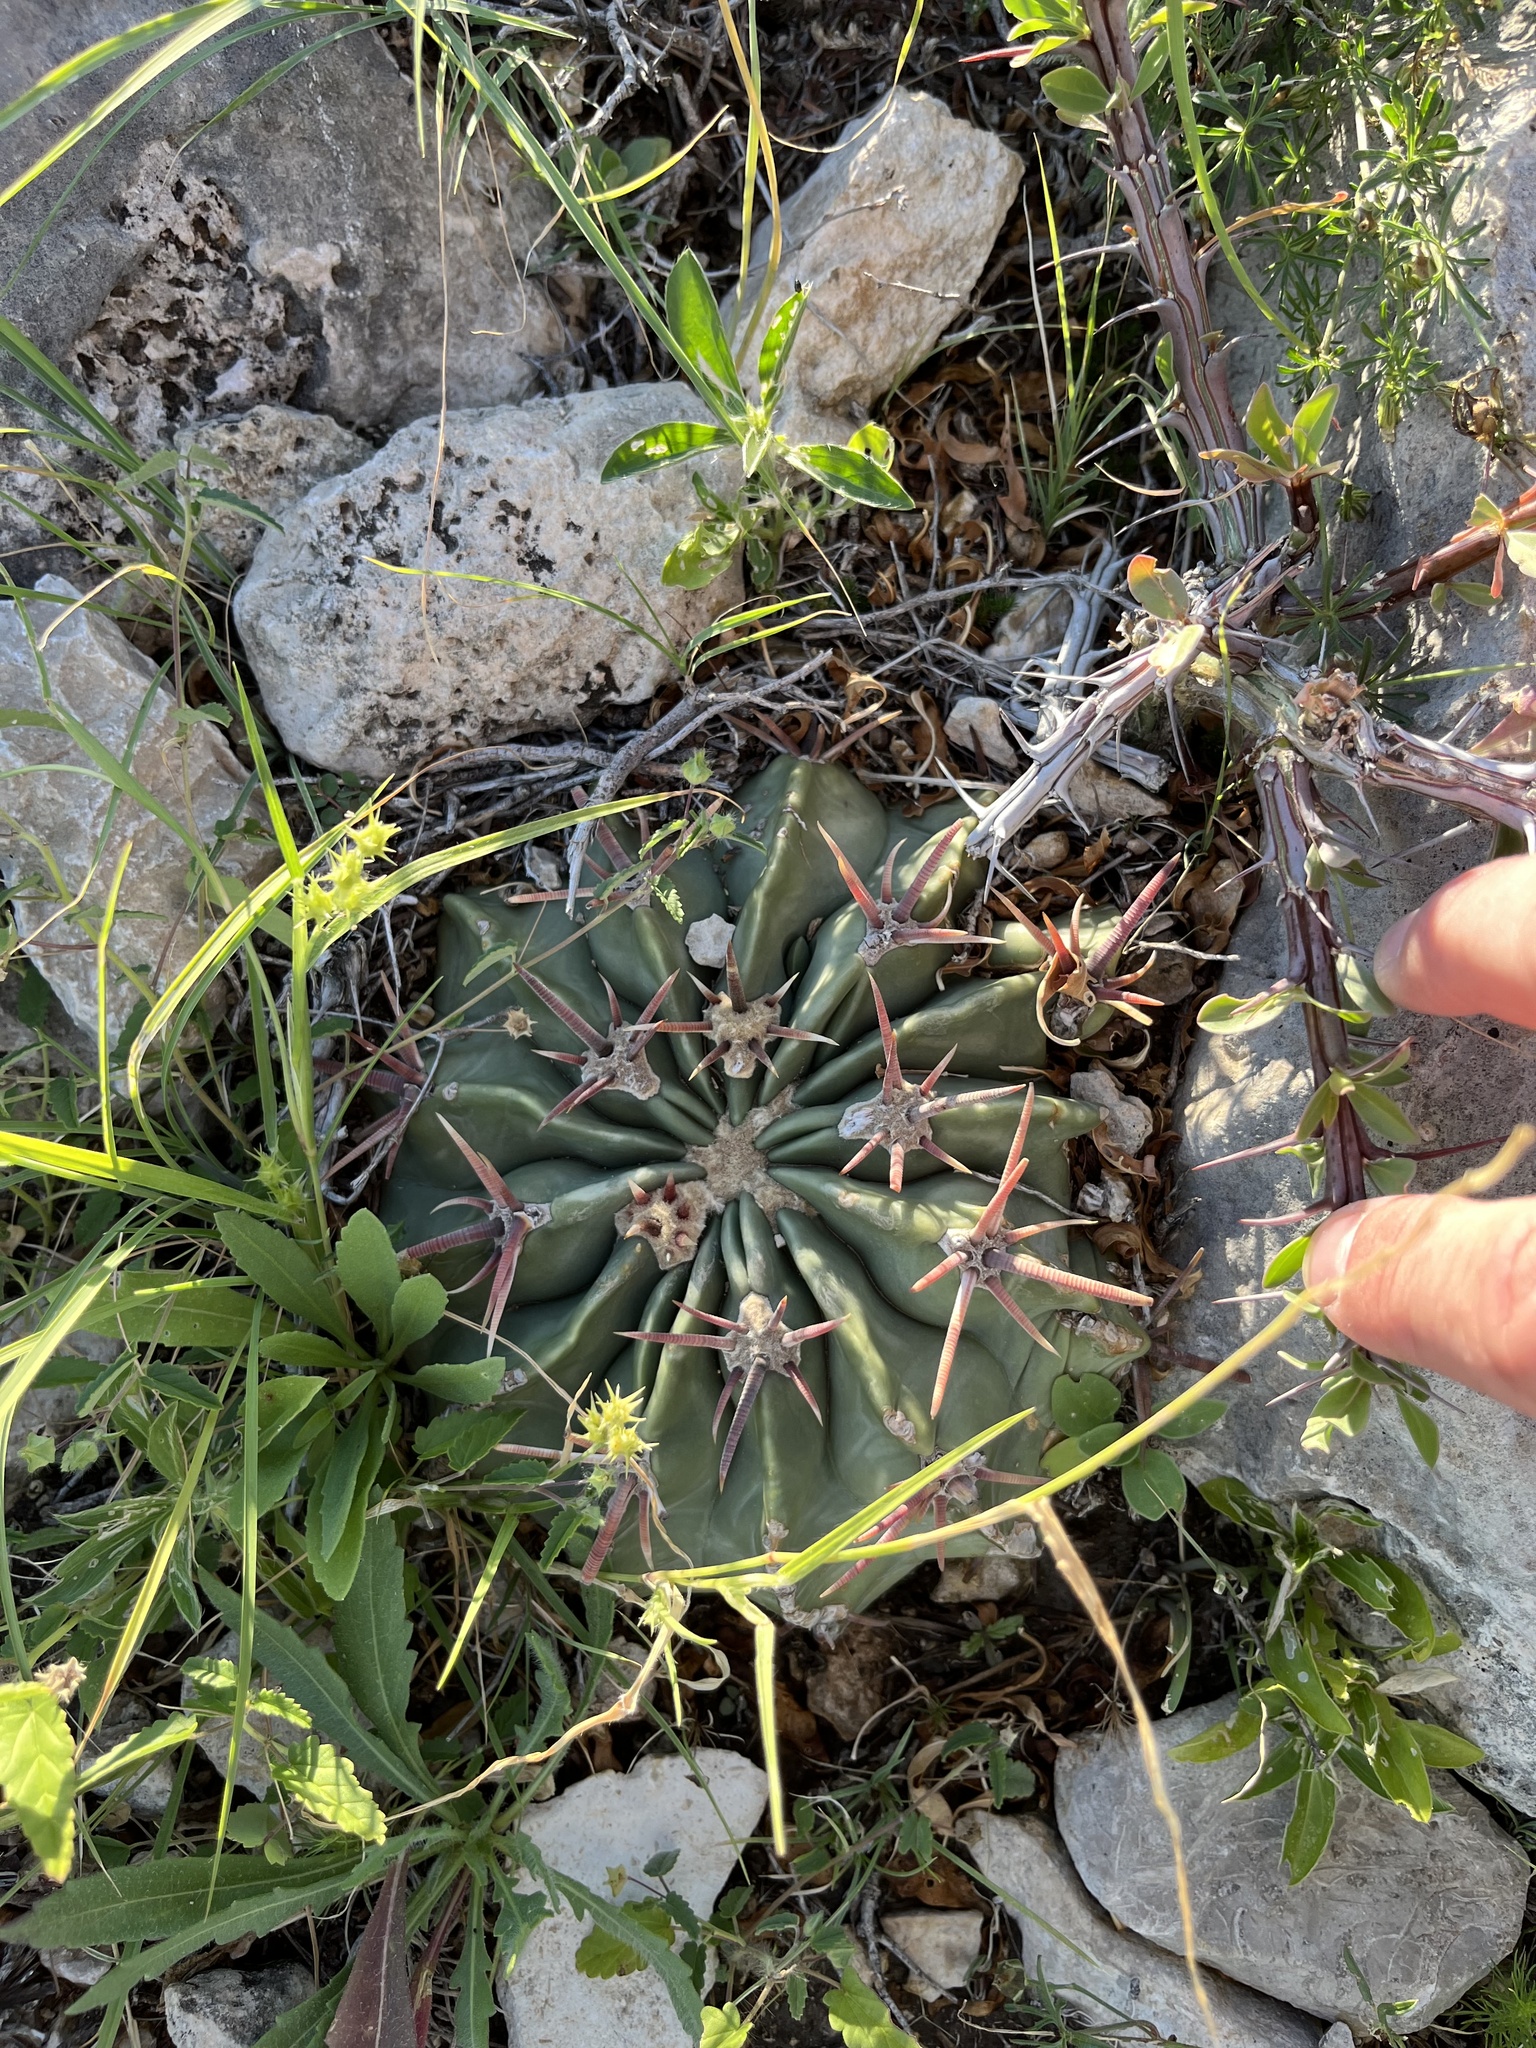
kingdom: Plantae
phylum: Tracheophyta
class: Magnoliopsida
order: Caryophyllales
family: Cactaceae
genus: Echinocactus
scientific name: Echinocactus texensis
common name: Devil's pincushion
